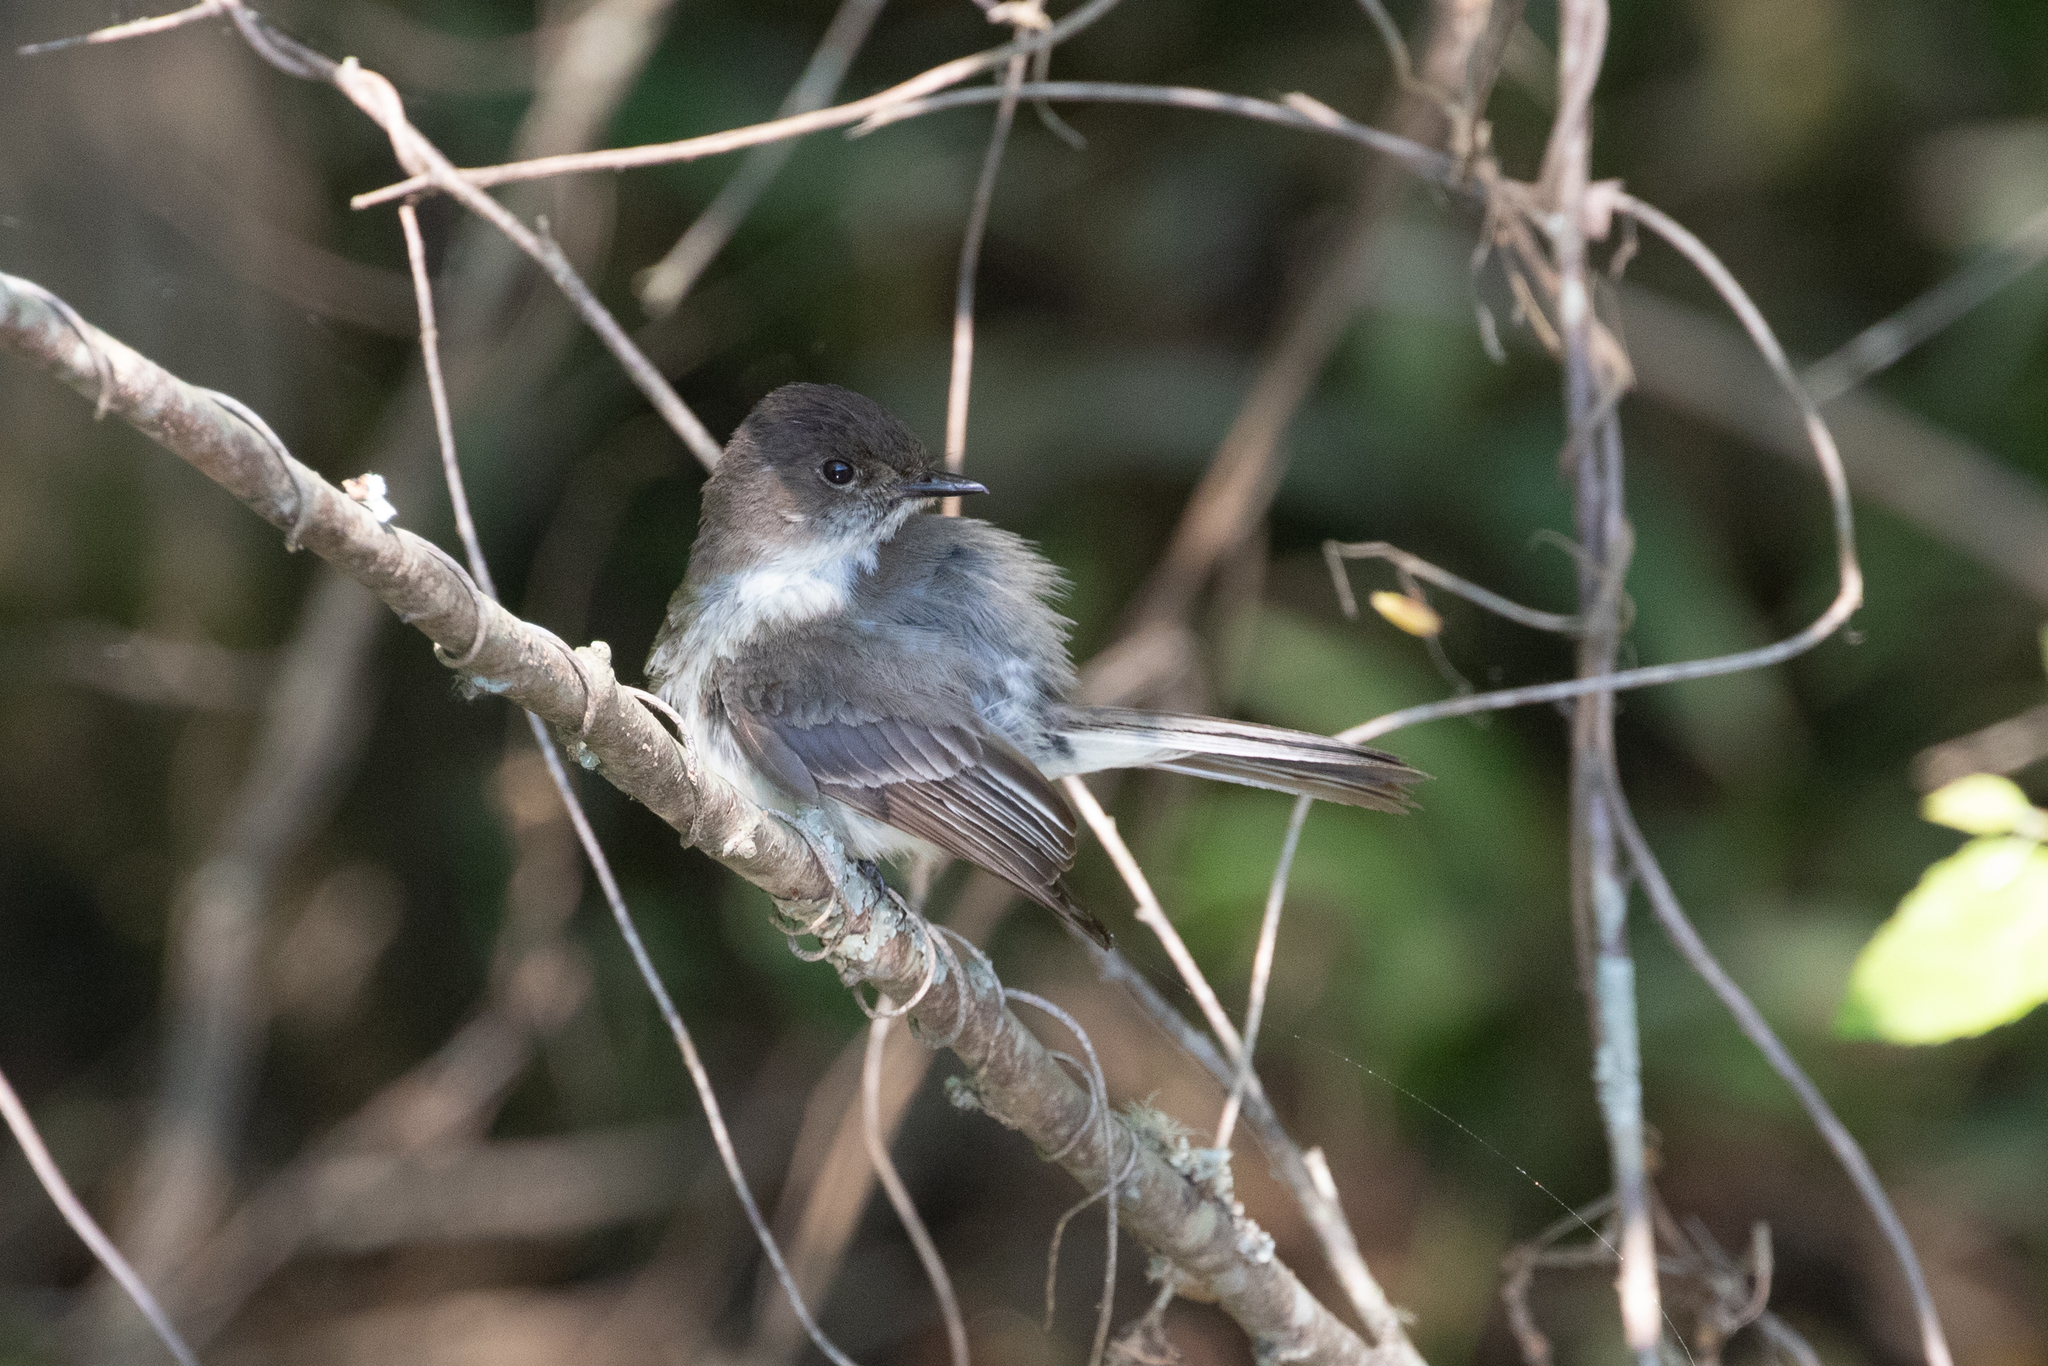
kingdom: Animalia
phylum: Chordata
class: Aves
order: Passeriformes
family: Tyrannidae
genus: Sayornis
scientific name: Sayornis phoebe
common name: Eastern phoebe
